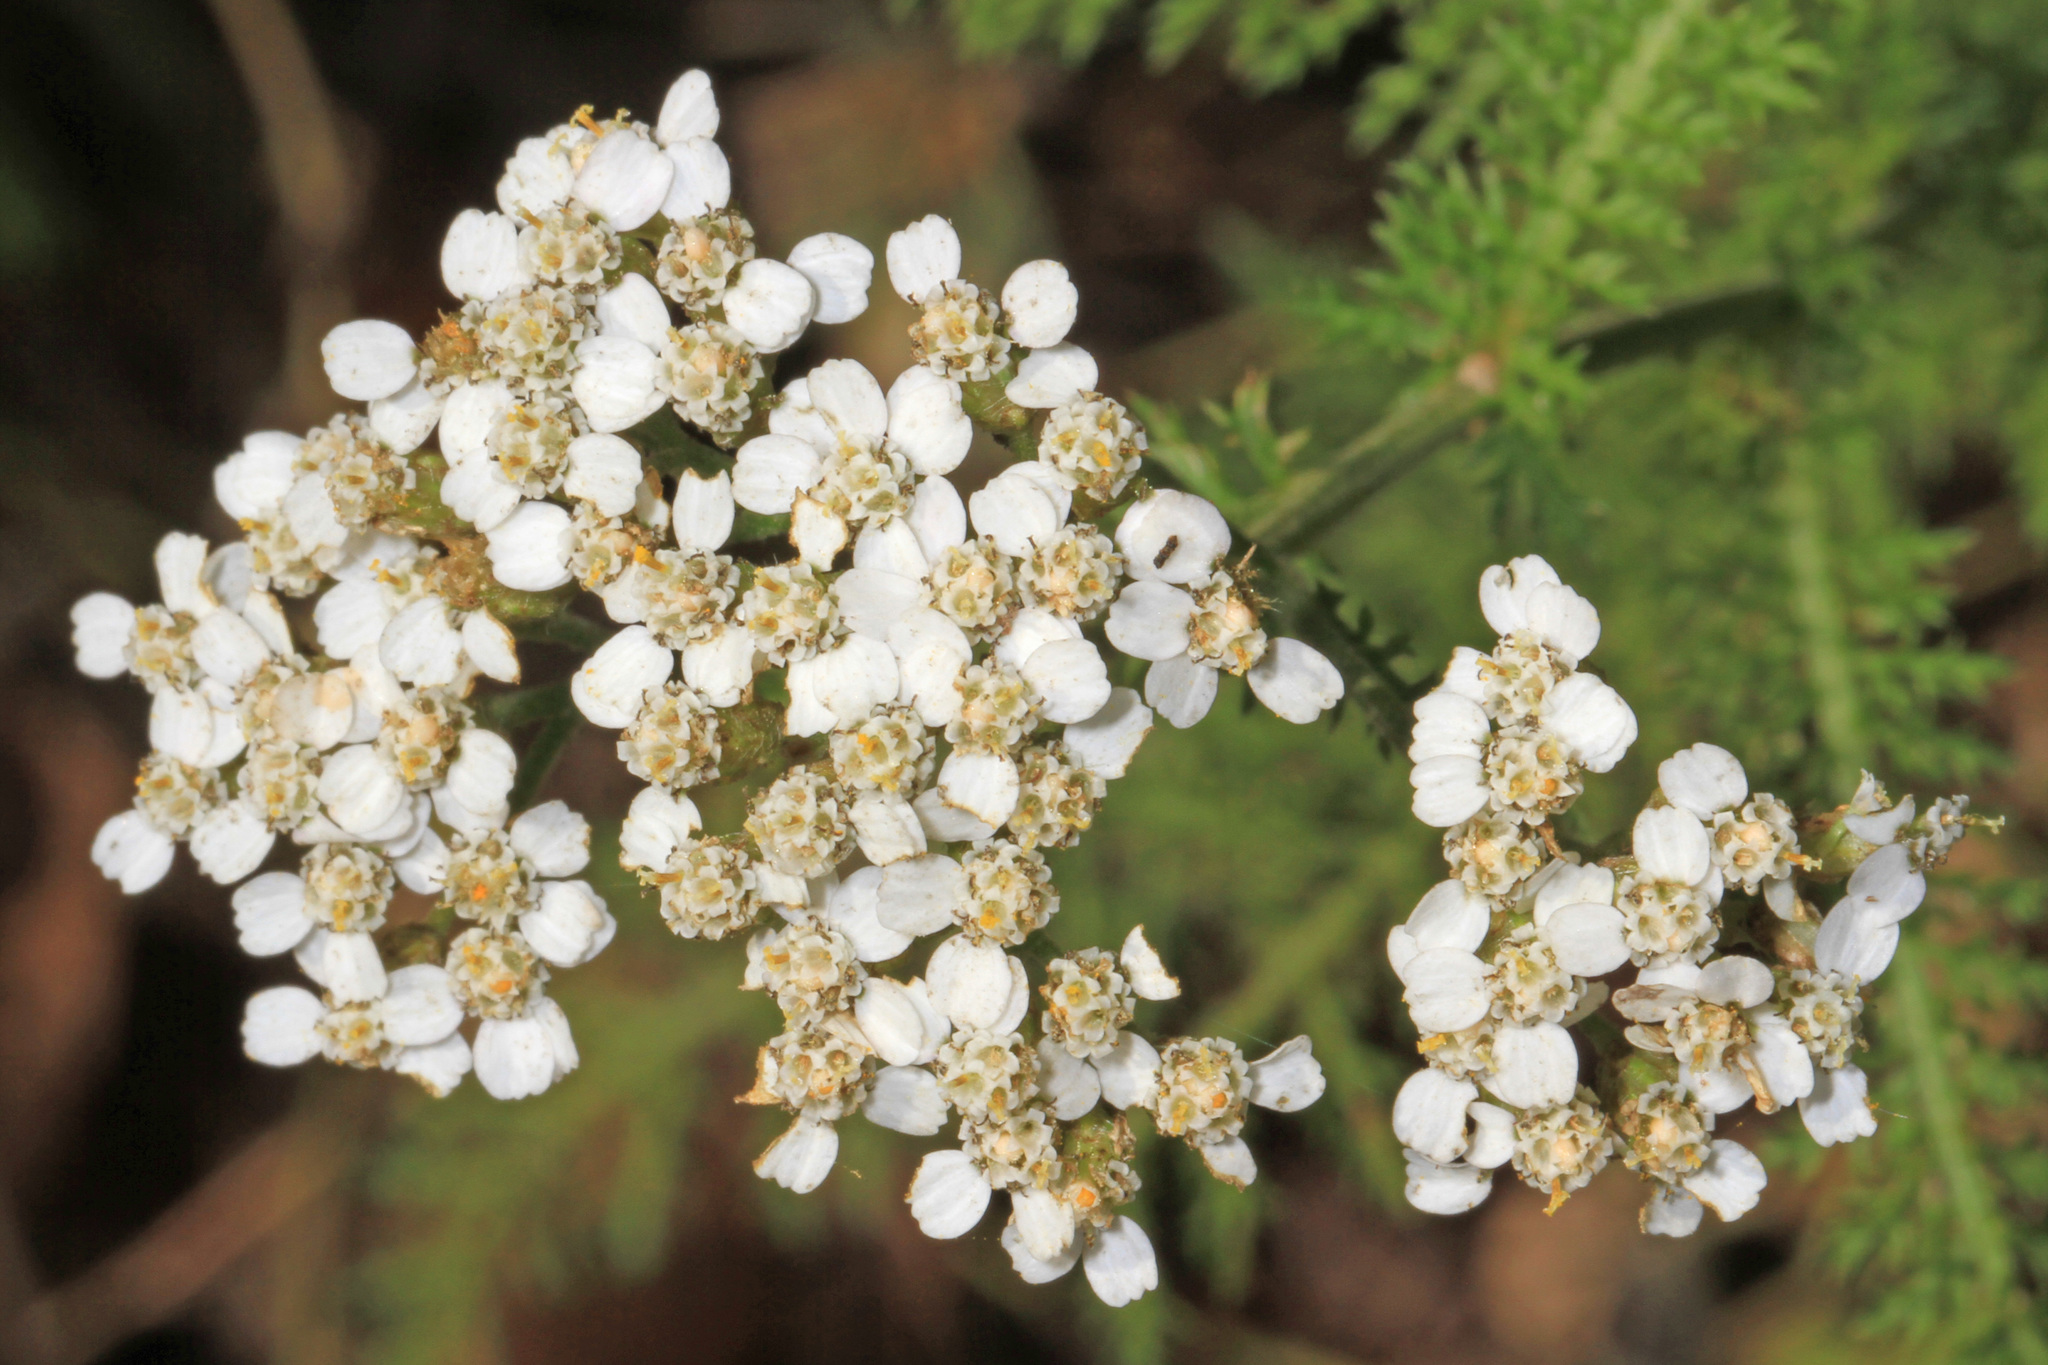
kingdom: Plantae
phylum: Tracheophyta
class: Magnoliopsida
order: Asterales
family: Asteraceae
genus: Achillea
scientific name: Achillea millefolium
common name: Yarrow
